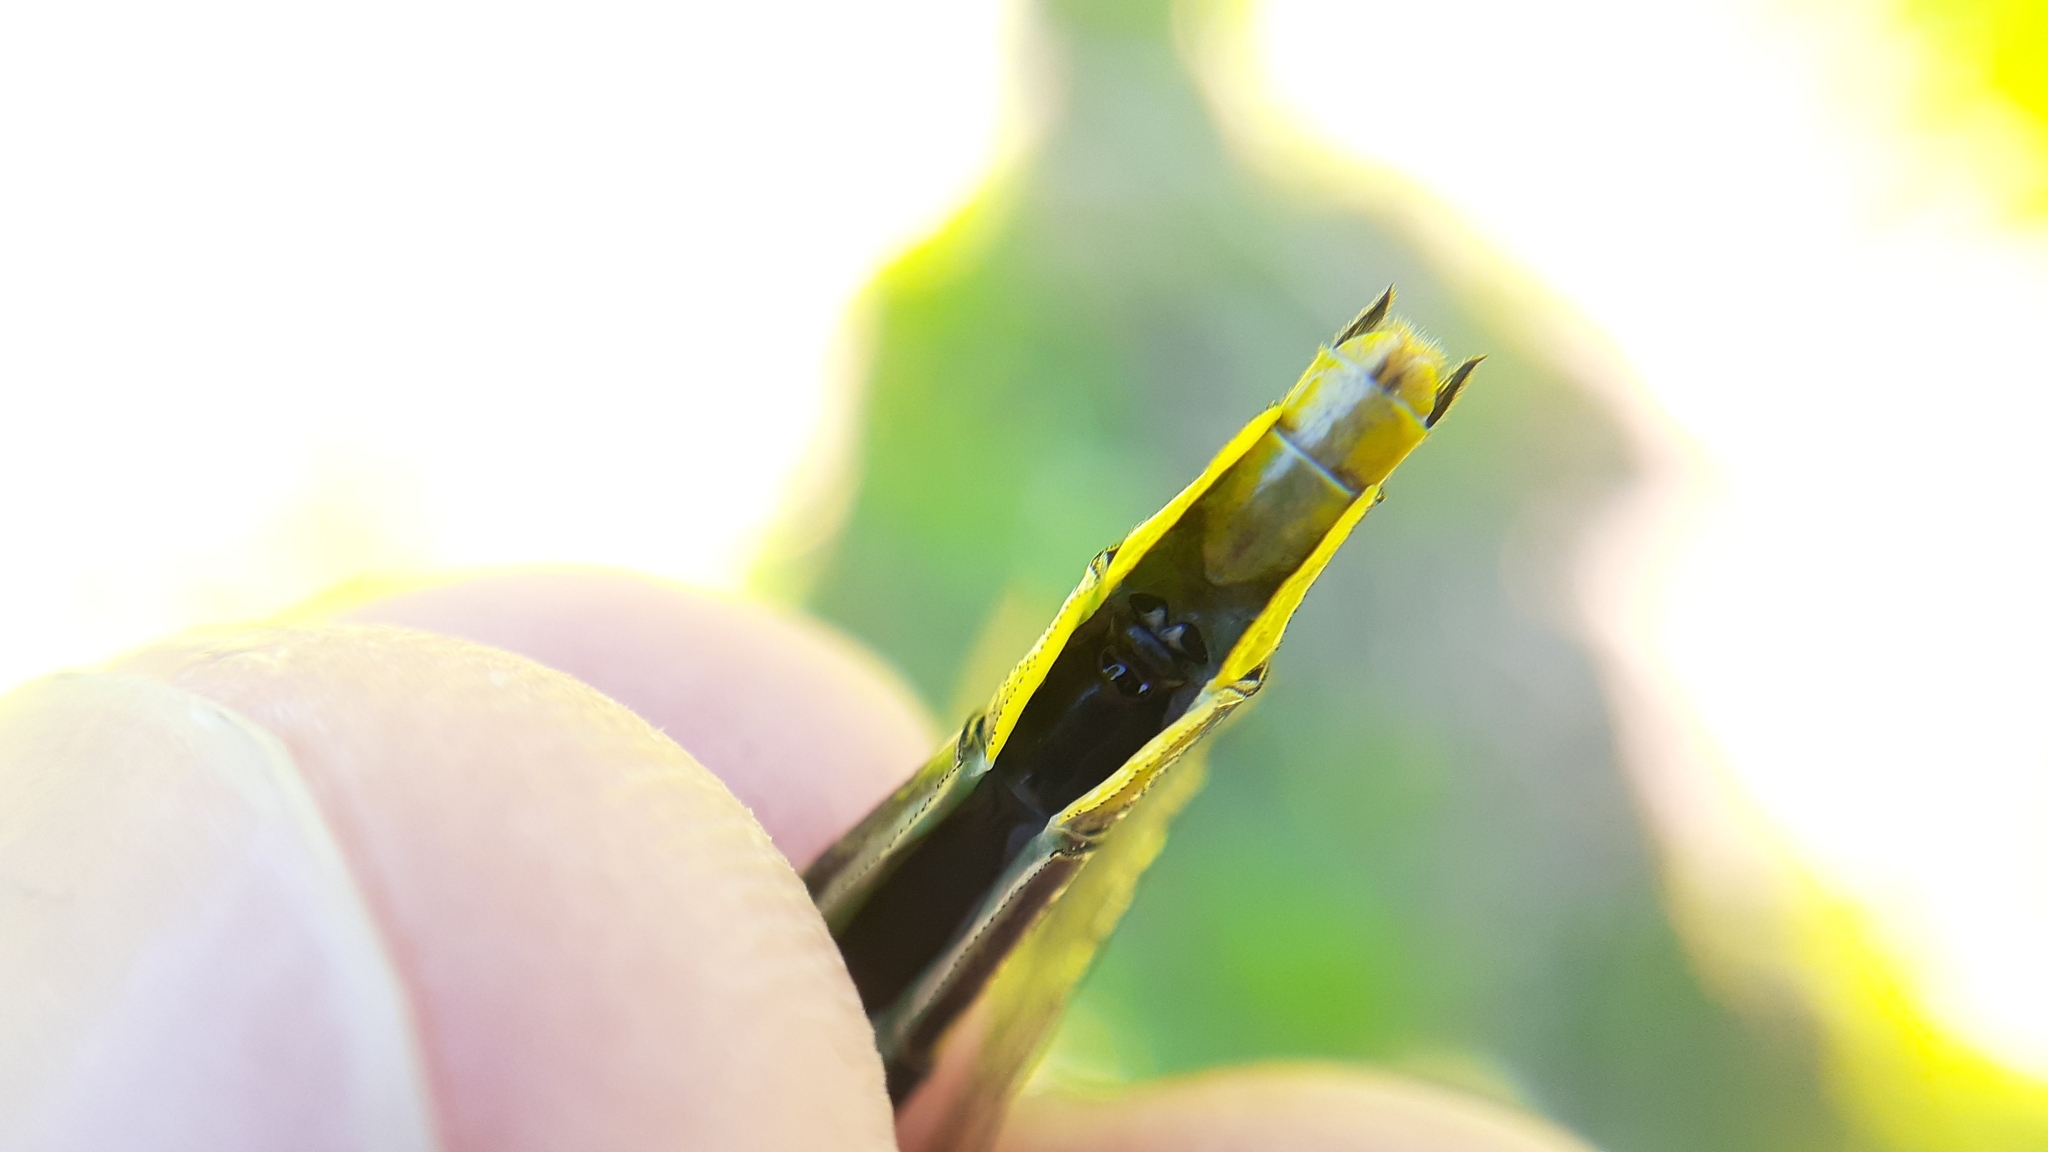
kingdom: Animalia
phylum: Arthropoda
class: Insecta
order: Odonata
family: Gomphidae
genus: Phanogomphus
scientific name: Phanogomphus graslinellus
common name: Pronghorn clubtail
